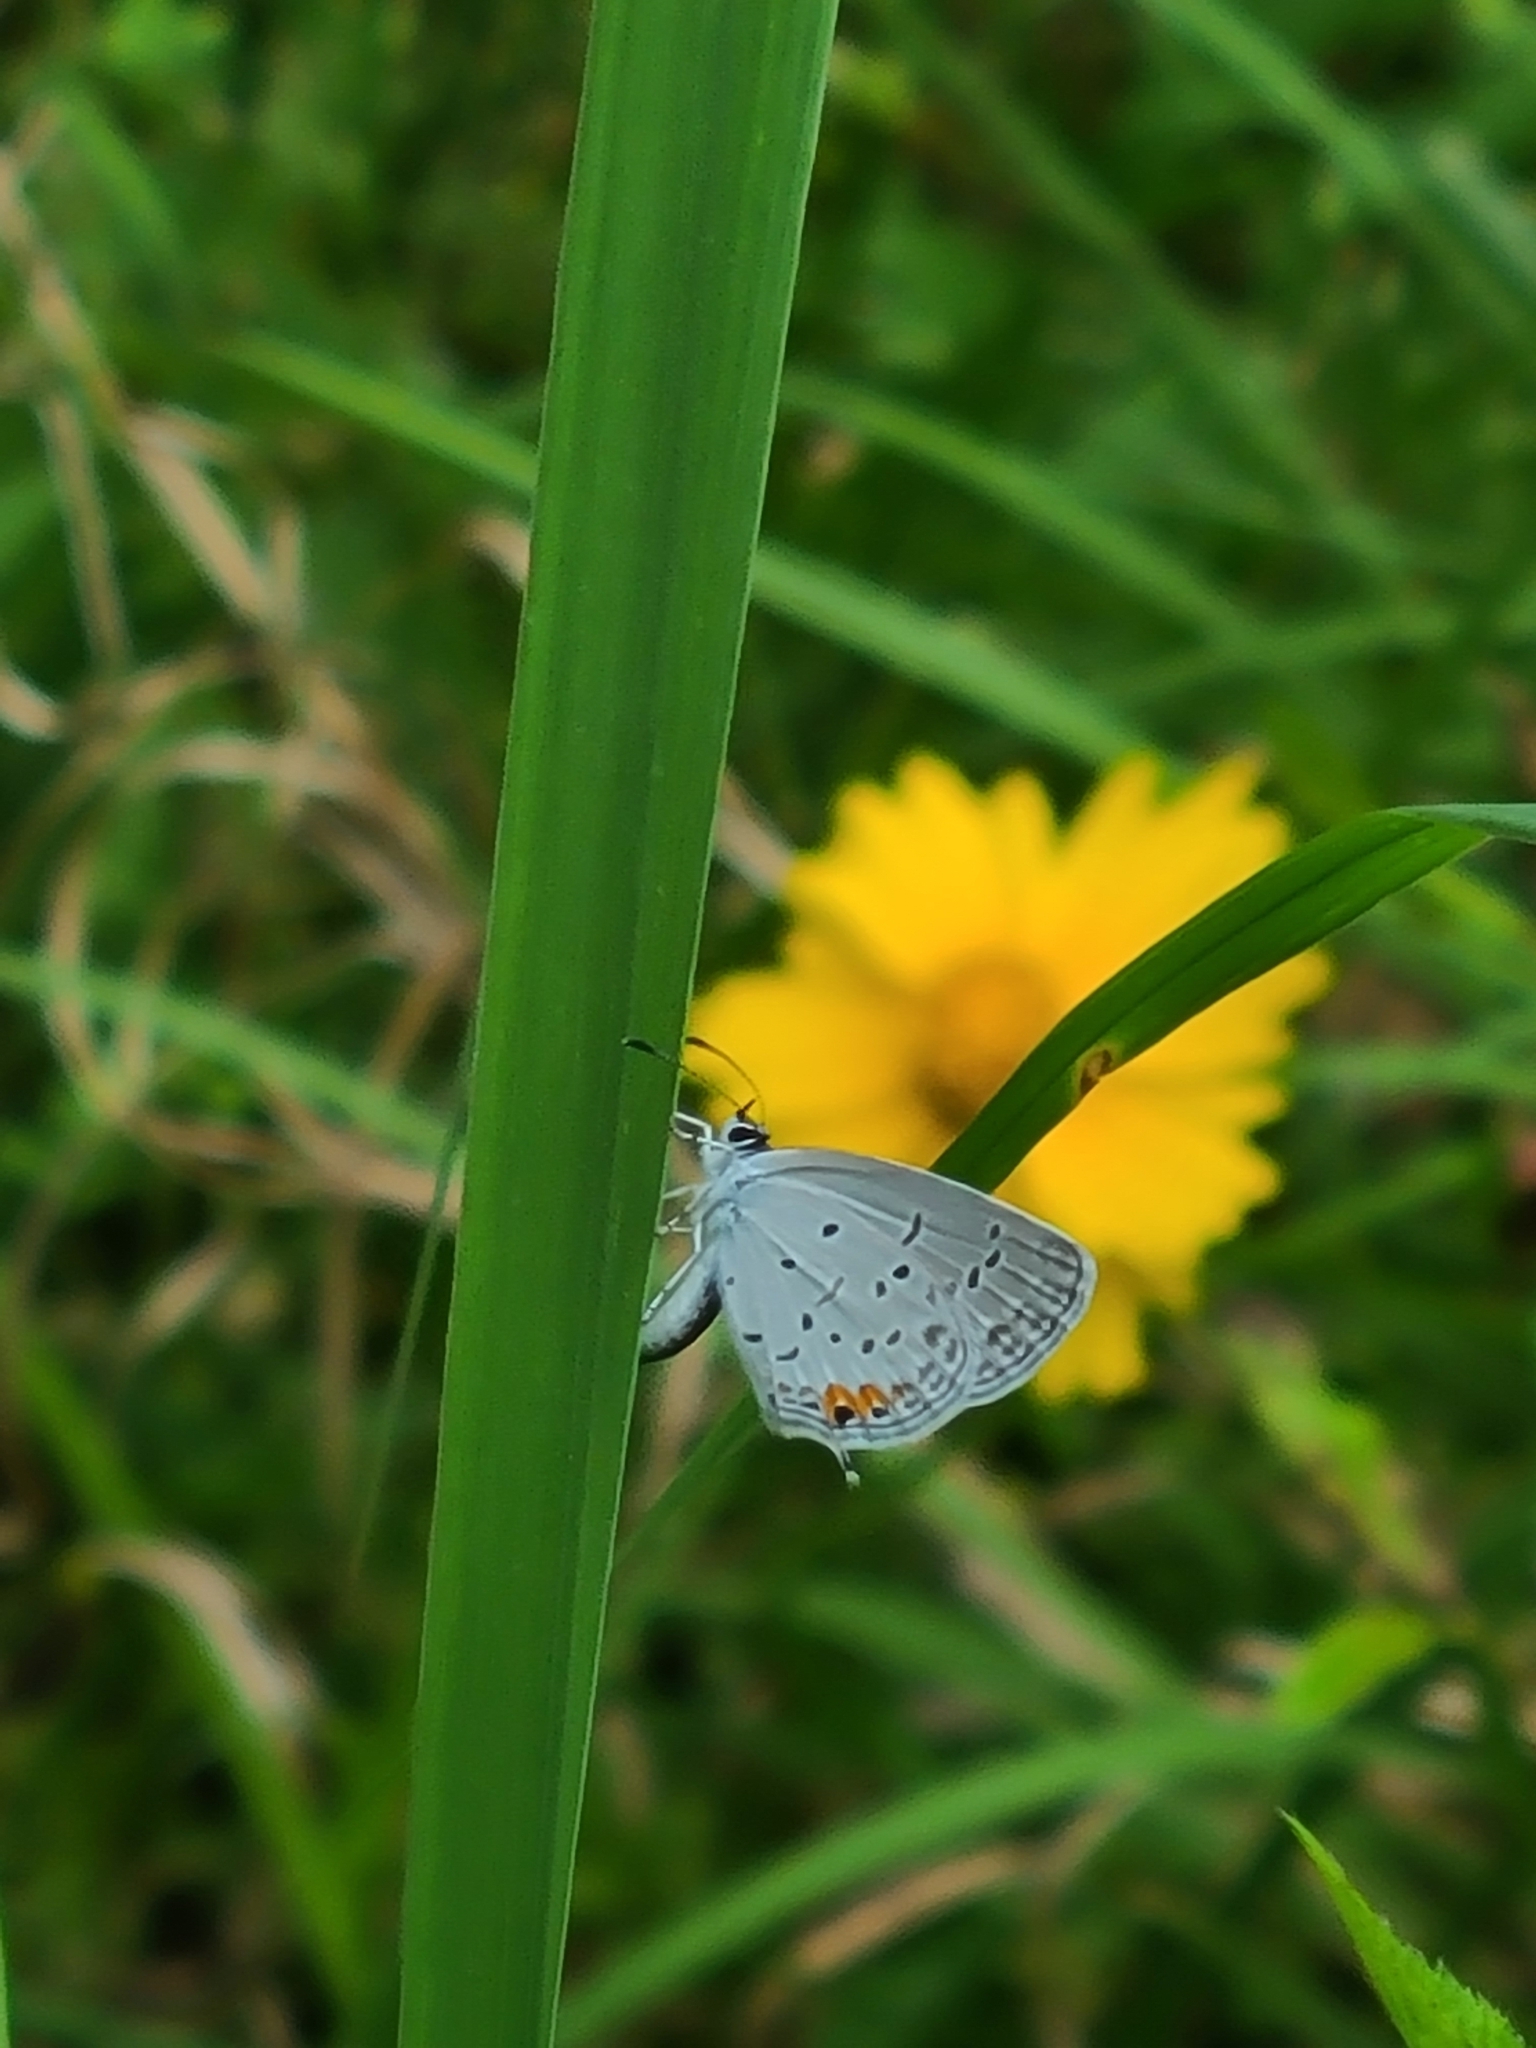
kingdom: Animalia
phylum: Arthropoda
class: Insecta
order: Lepidoptera
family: Lycaenidae
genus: Elkalyce
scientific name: Elkalyce comyntas
